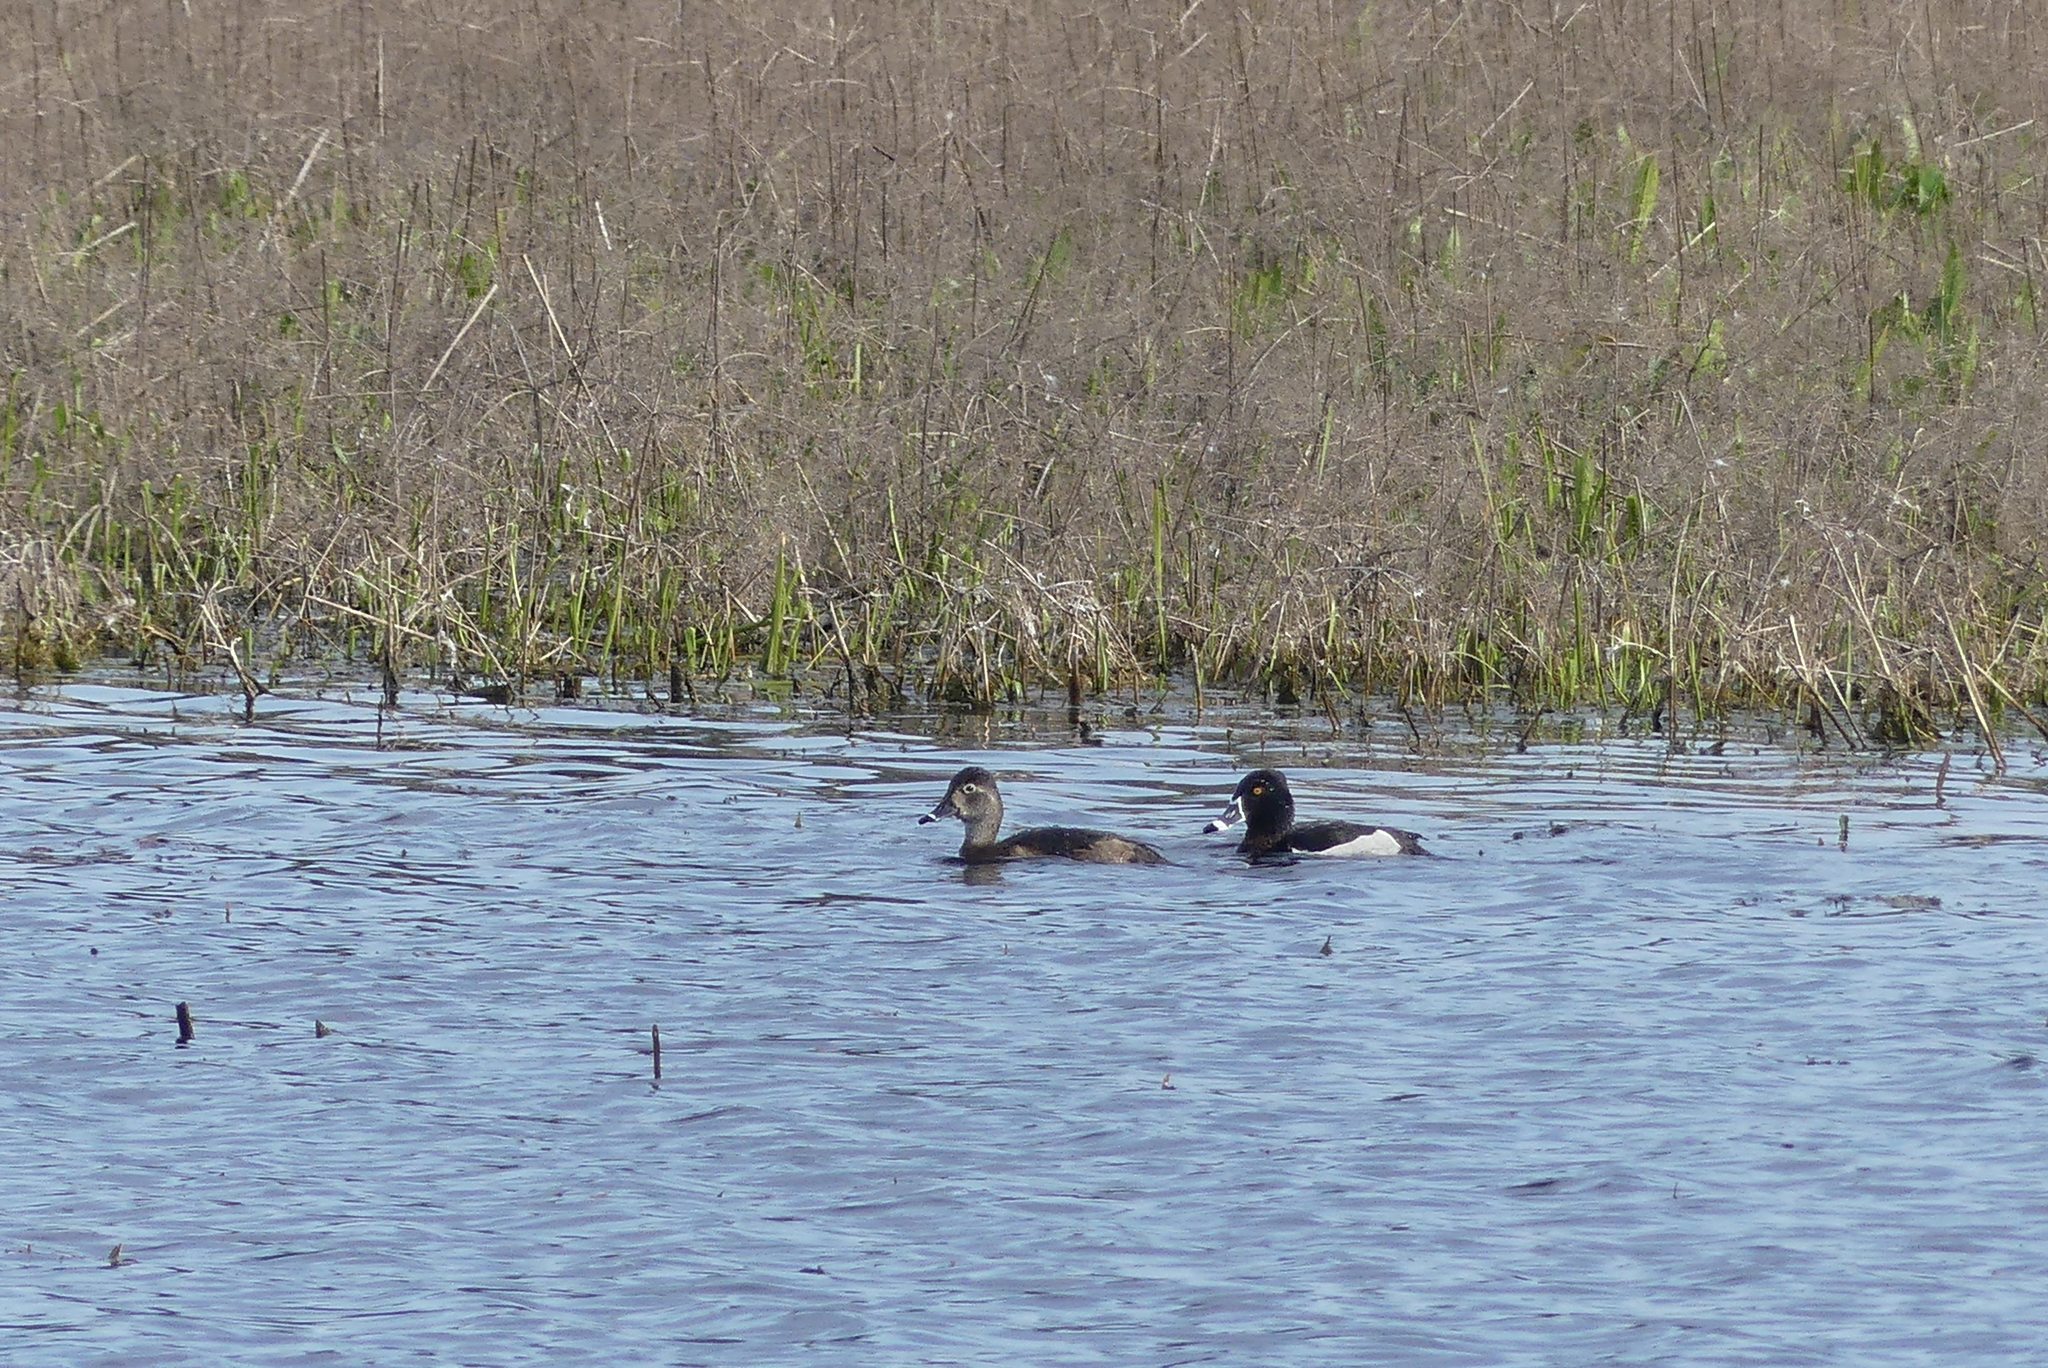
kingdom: Animalia
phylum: Chordata
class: Aves
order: Anseriformes
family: Anatidae
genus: Aythya
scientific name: Aythya collaris
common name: Ring-necked duck
